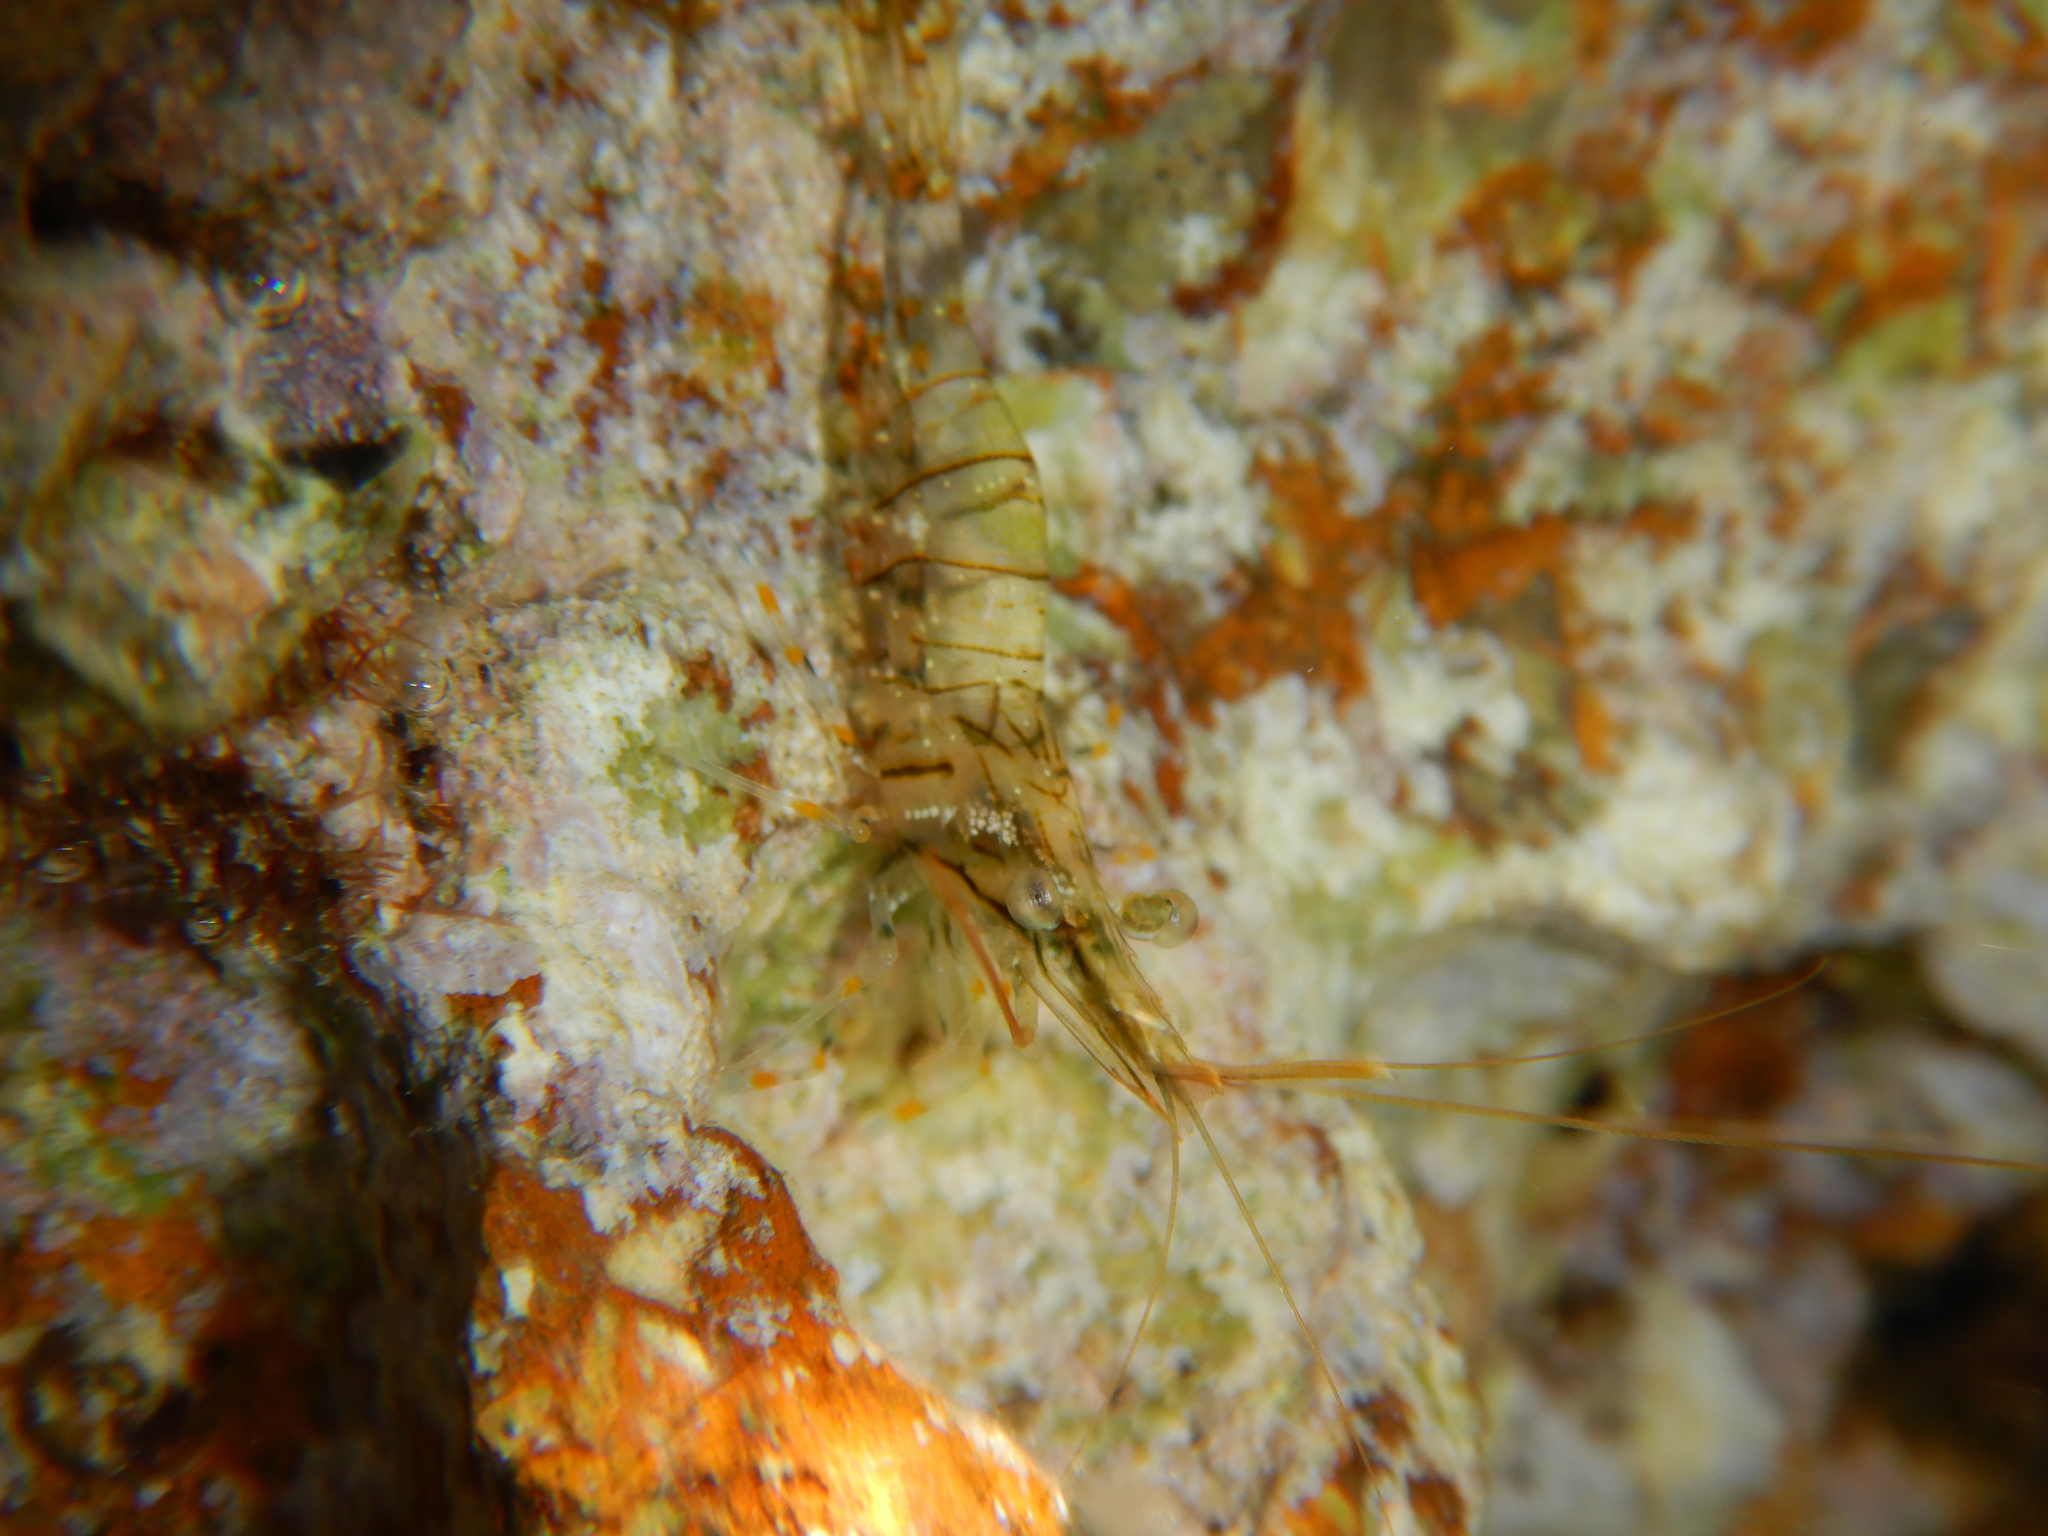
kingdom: Animalia
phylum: Arthropoda
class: Malacostraca
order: Decapoda
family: Palaemonidae
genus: Palaemon
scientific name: Palaemon elegans
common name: Grass prawm
